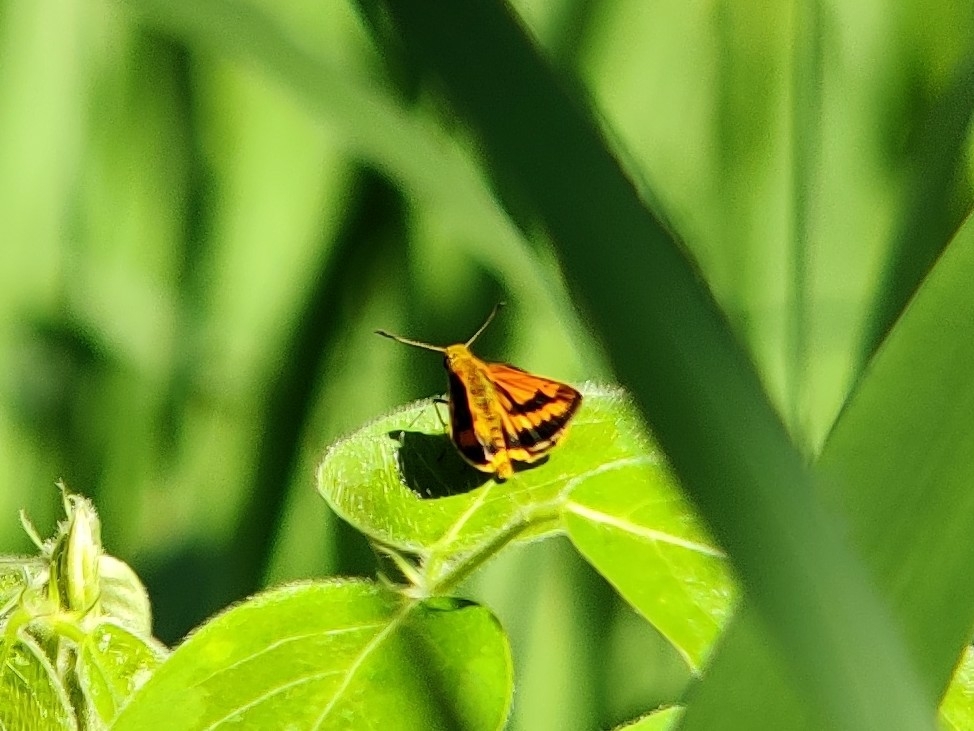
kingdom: Animalia
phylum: Arthropoda
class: Insecta
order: Lepidoptera
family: Hesperiidae
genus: Suniana
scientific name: Suniana sunias
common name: Wide-brand grass-dart
